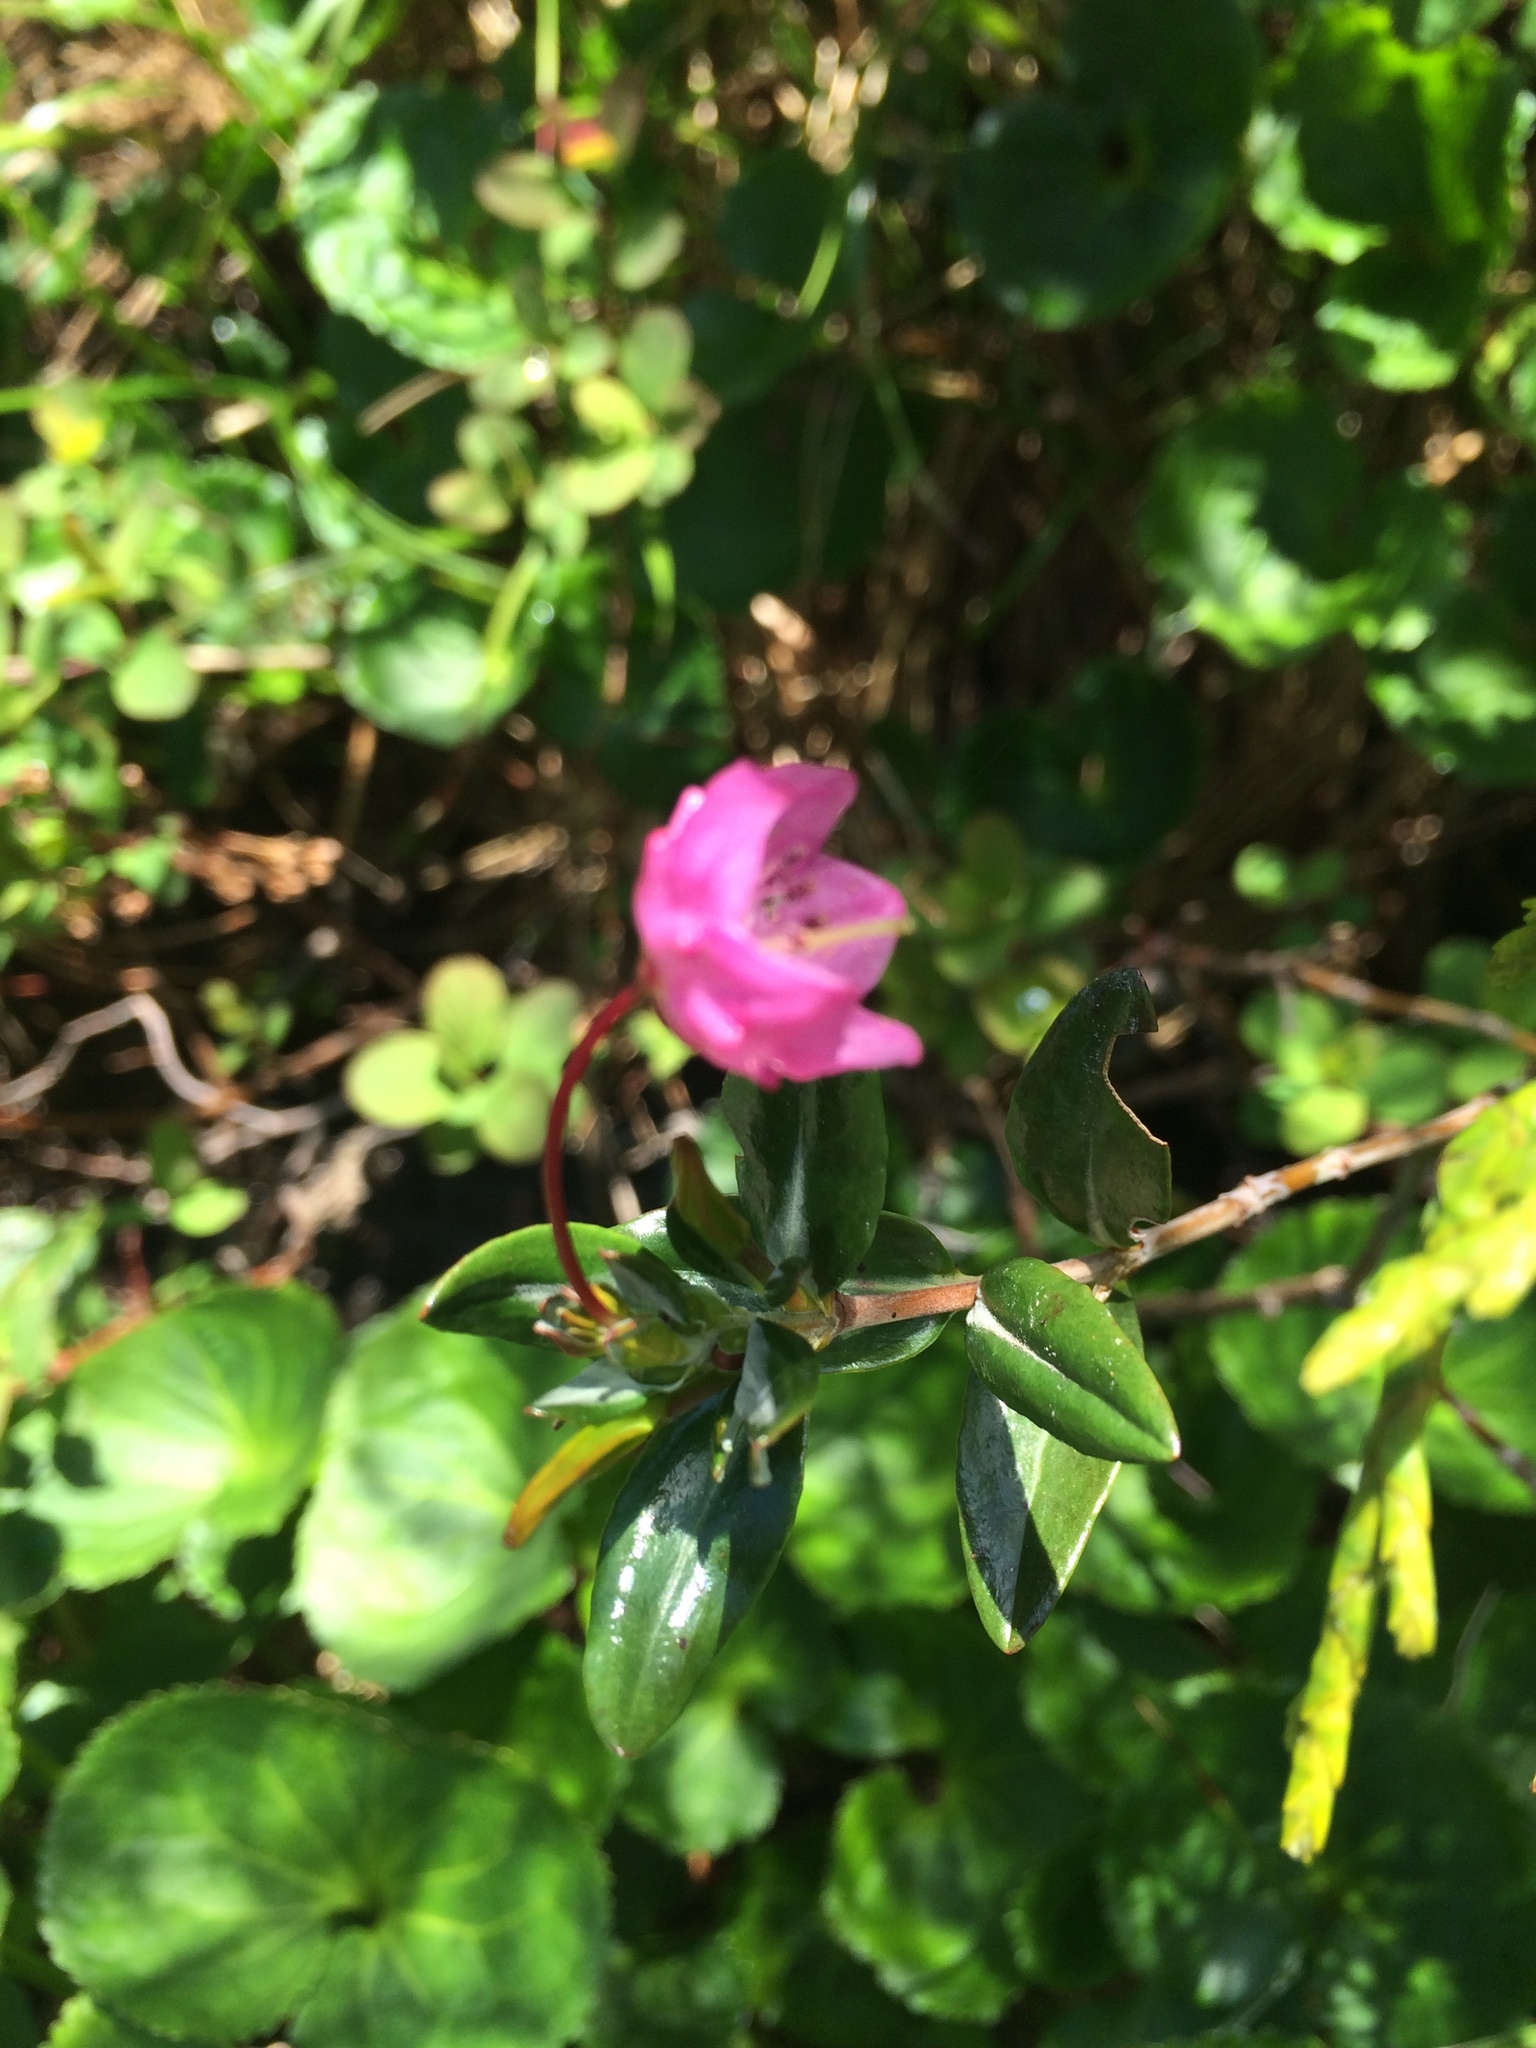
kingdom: Plantae
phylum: Tracheophyta
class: Magnoliopsida
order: Ericales
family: Ericaceae
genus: Kalmia
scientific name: Kalmia microphylla
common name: Alpine bog laurel
